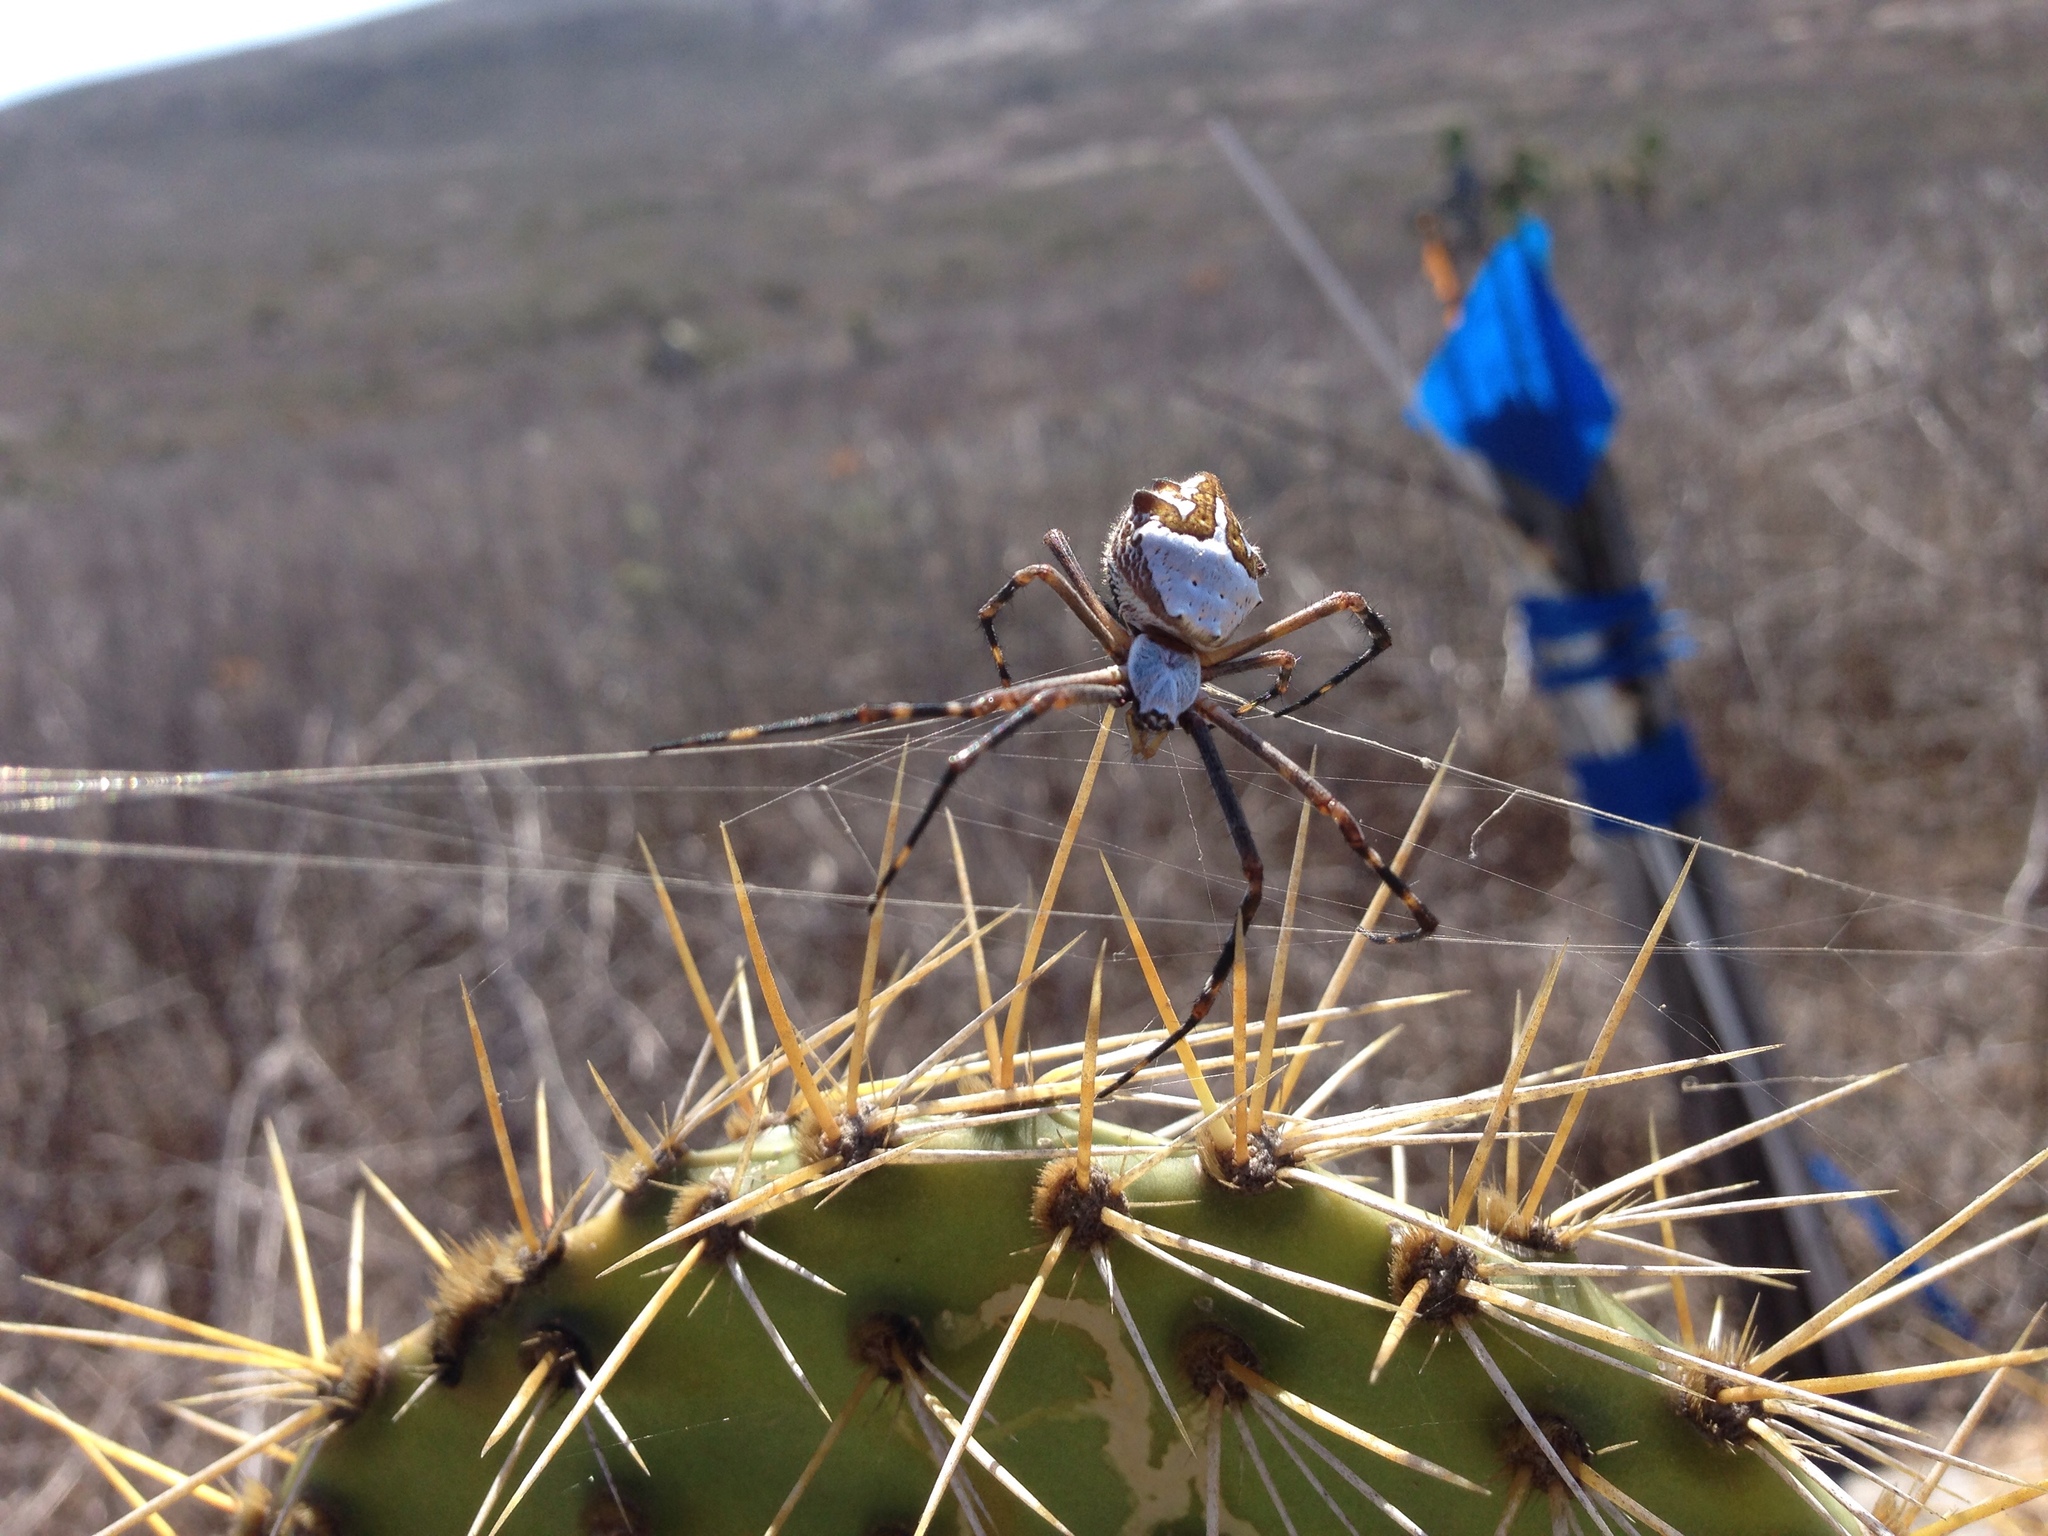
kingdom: Animalia
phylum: Arthropoda
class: Arachnida
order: Araneae
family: Araneidae
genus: Argiope
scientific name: Argiope argentata
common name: Orb weavers
